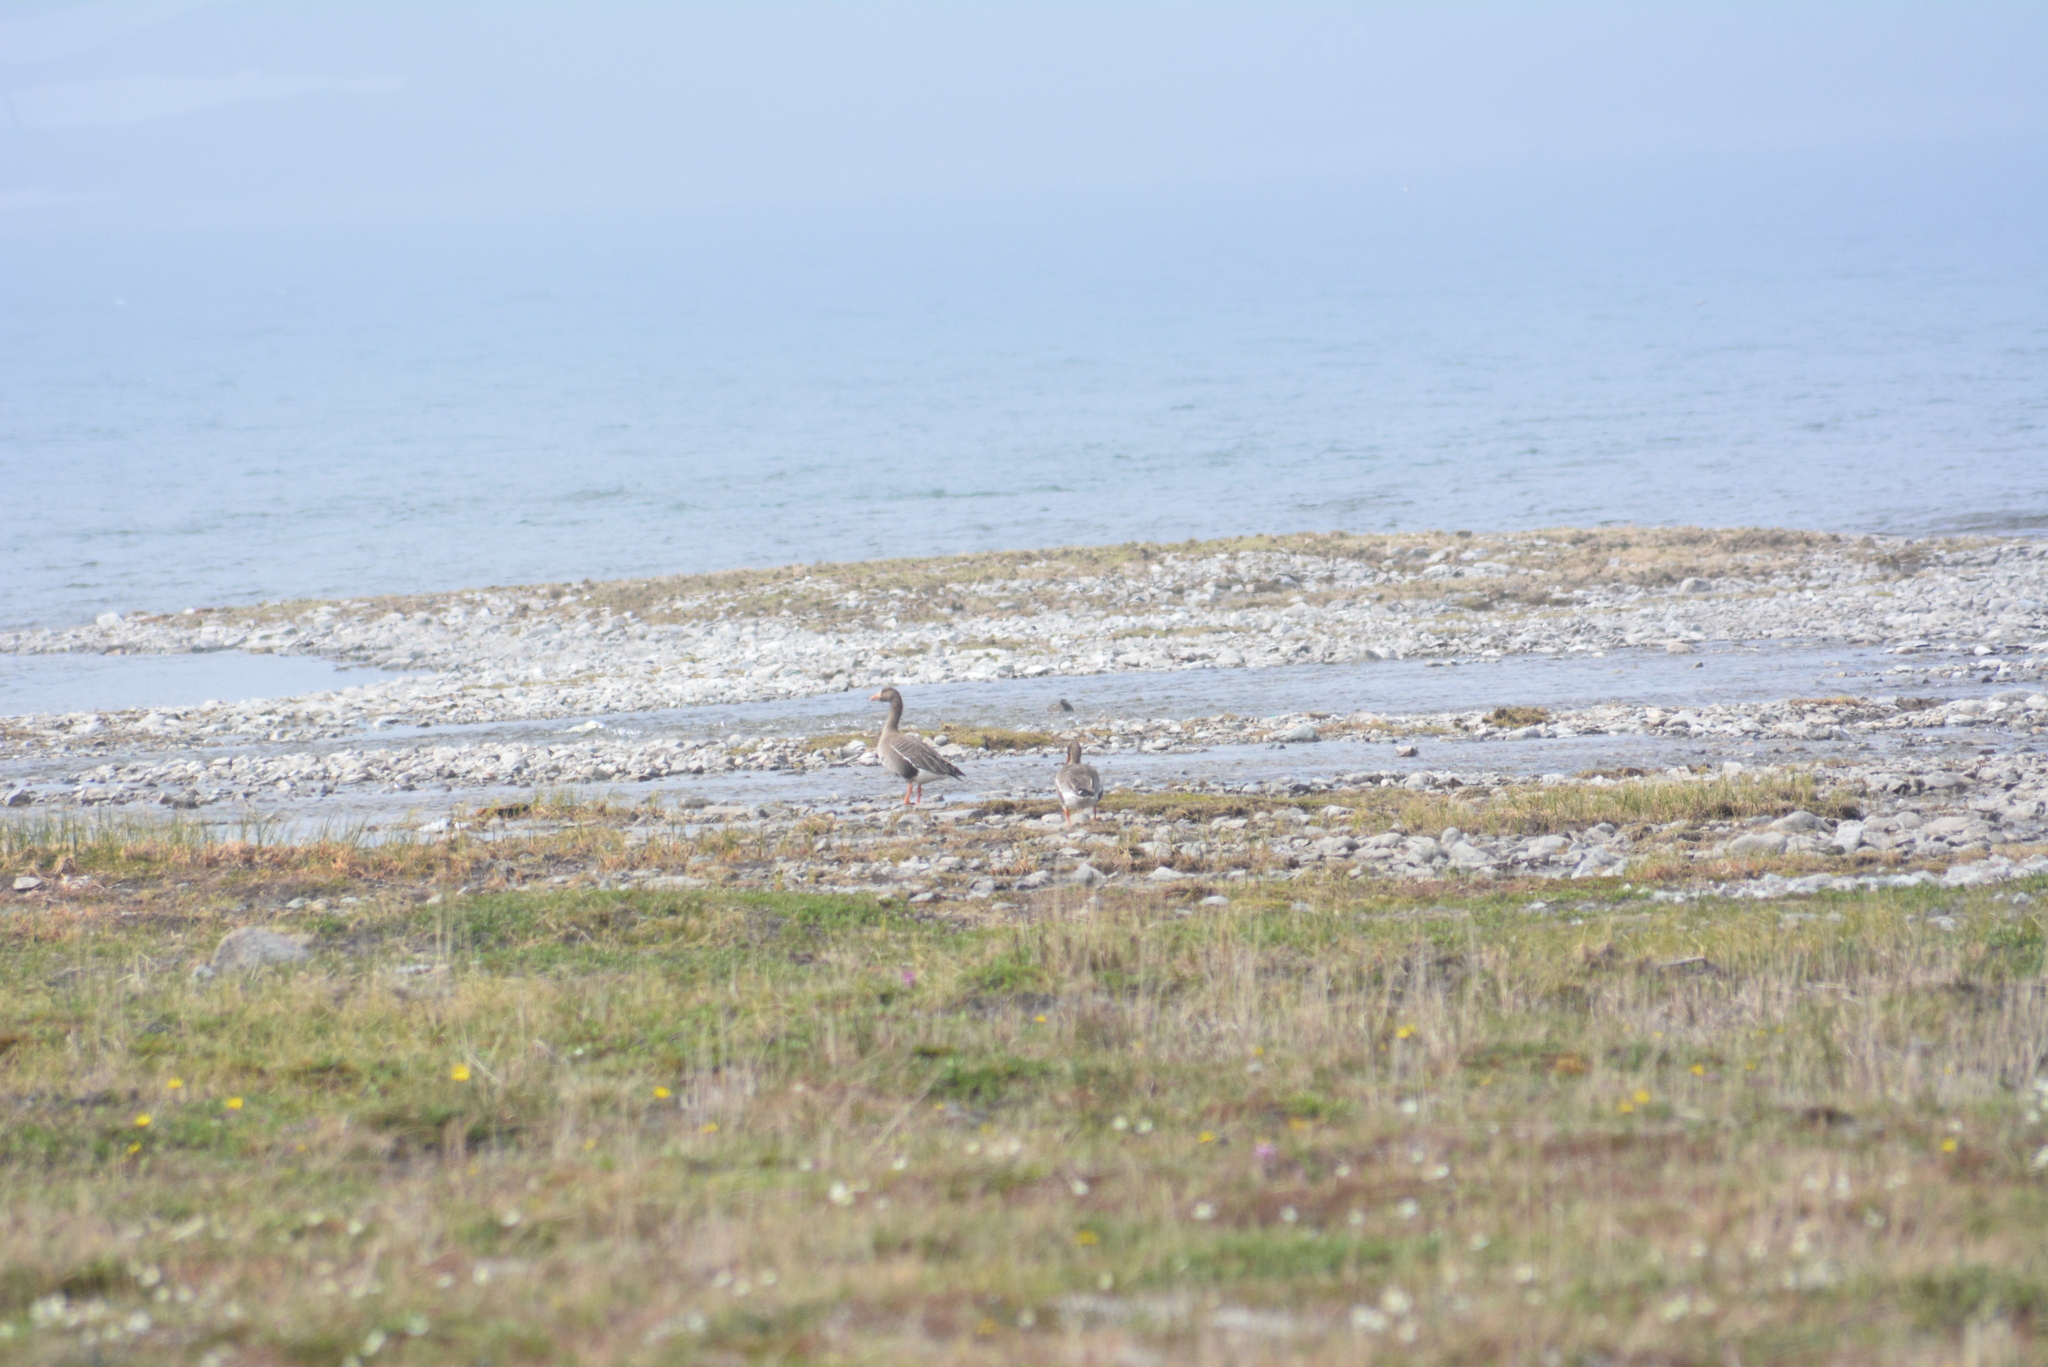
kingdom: Animalia
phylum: Chordata
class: Aves
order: Anseriformes
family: Anatidae
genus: Anser
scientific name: Anser albifrons
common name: Greater white-fronted goose
